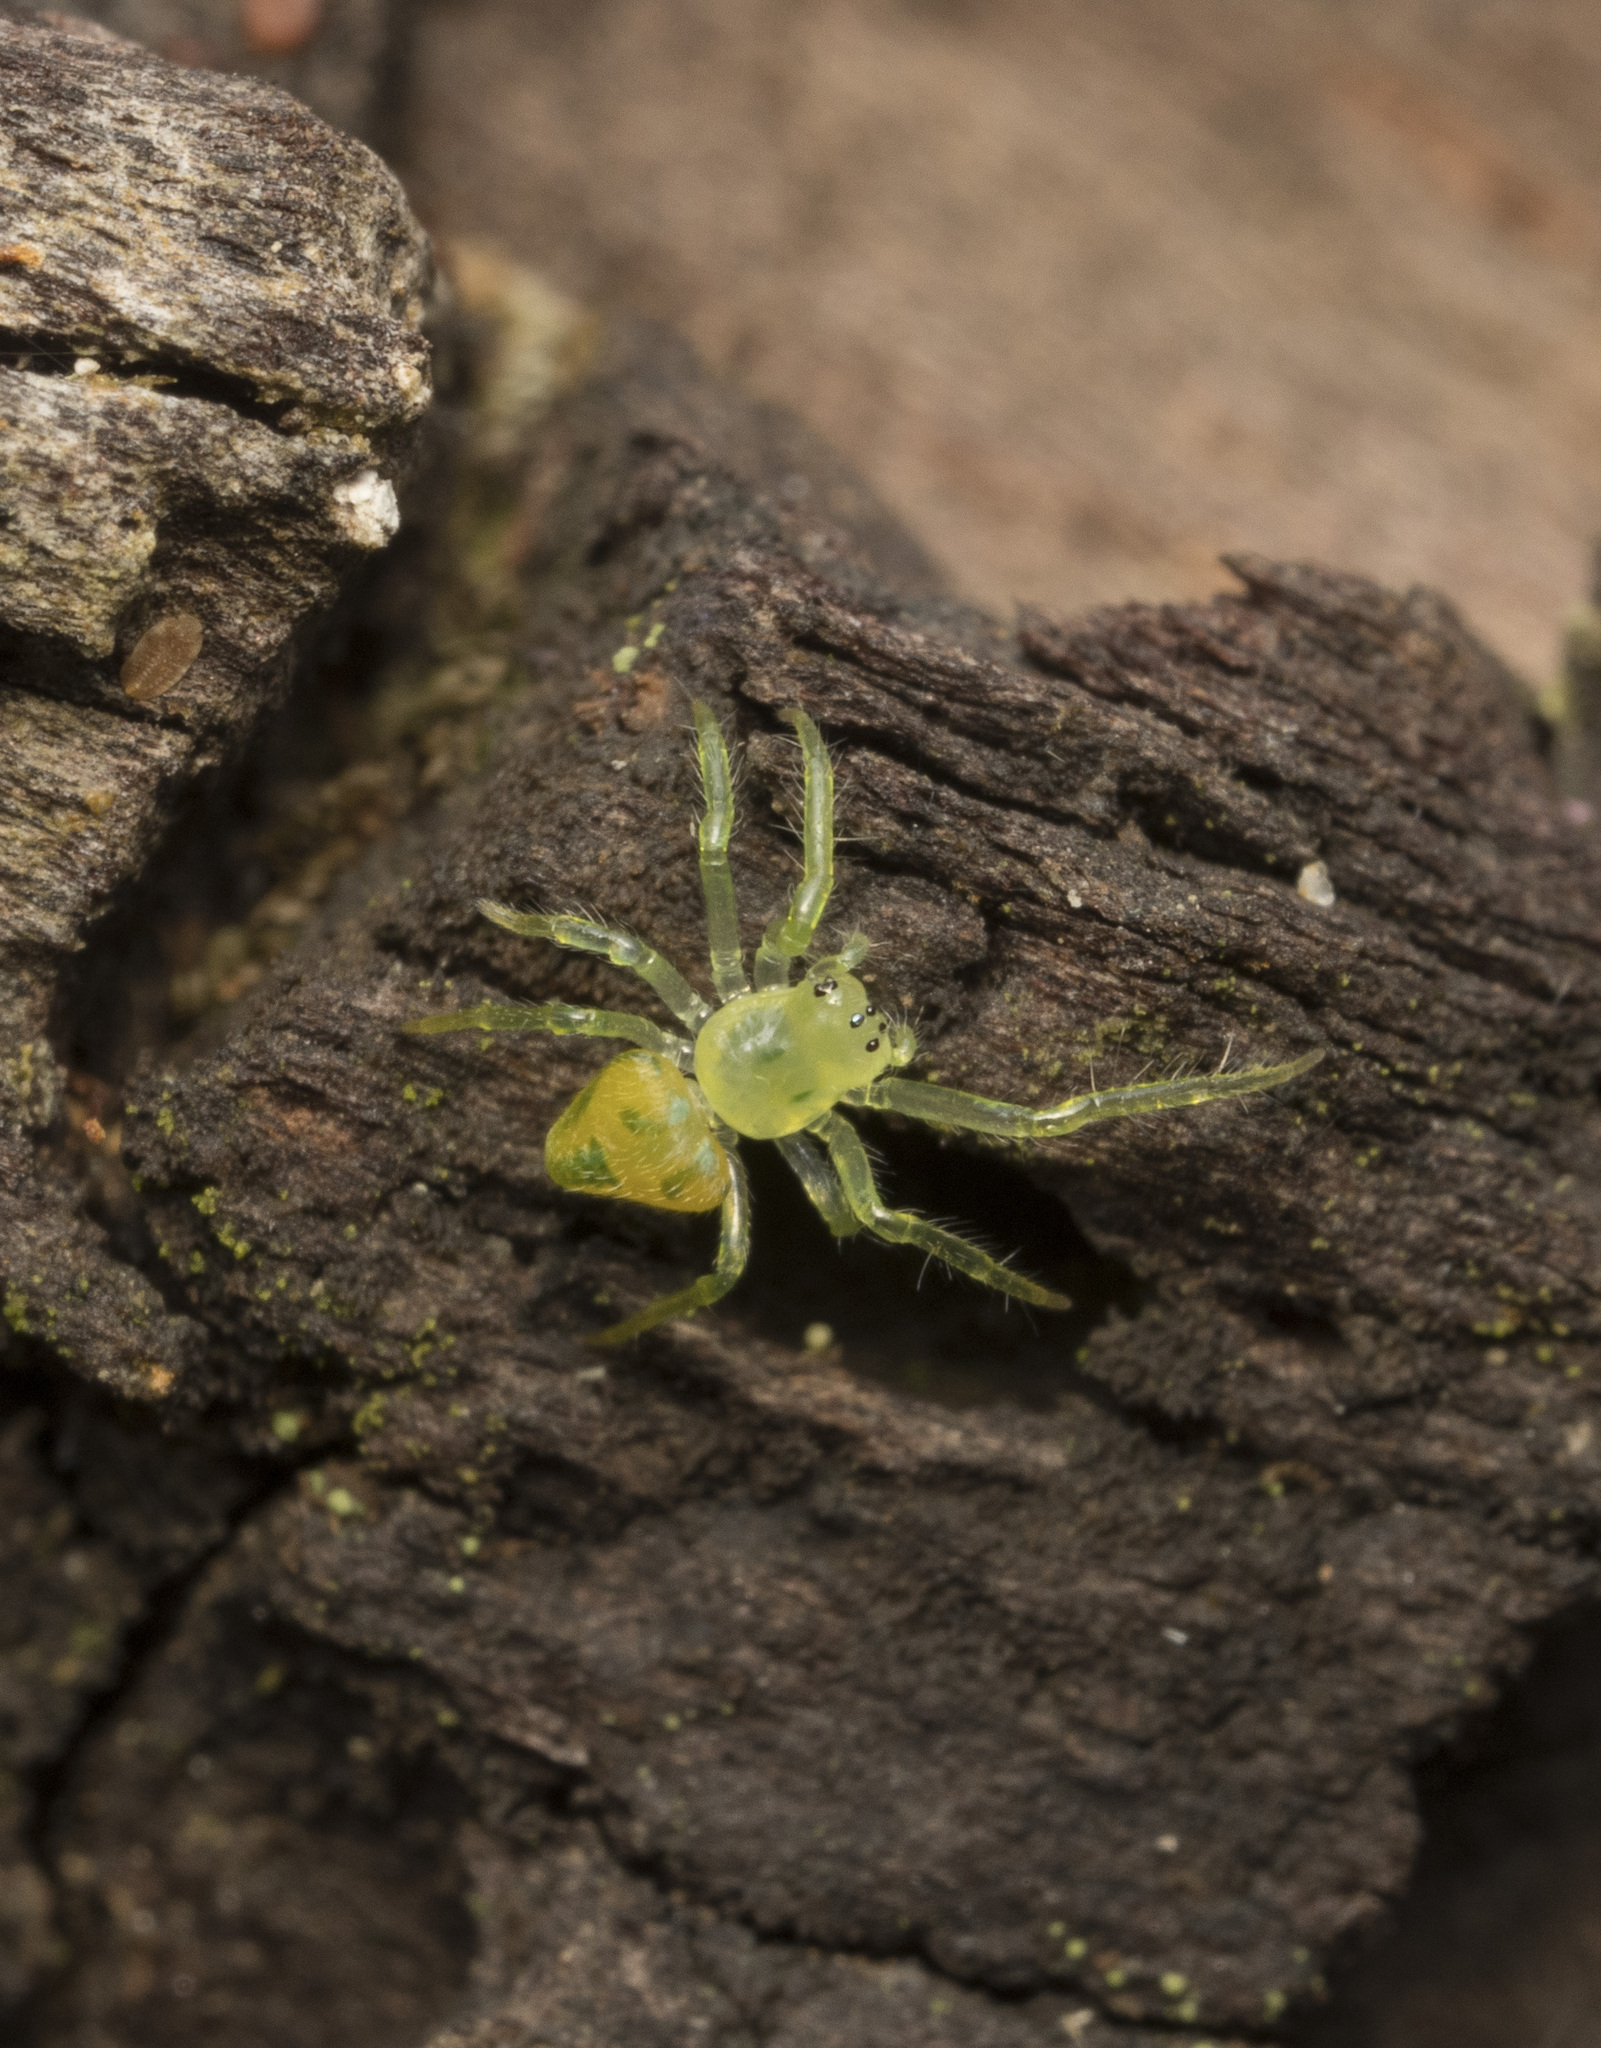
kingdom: Animalia
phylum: Arthropoda
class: Arachnida
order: Araneae
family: Araneidae
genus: Gnolus
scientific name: Gnolus spiculator
